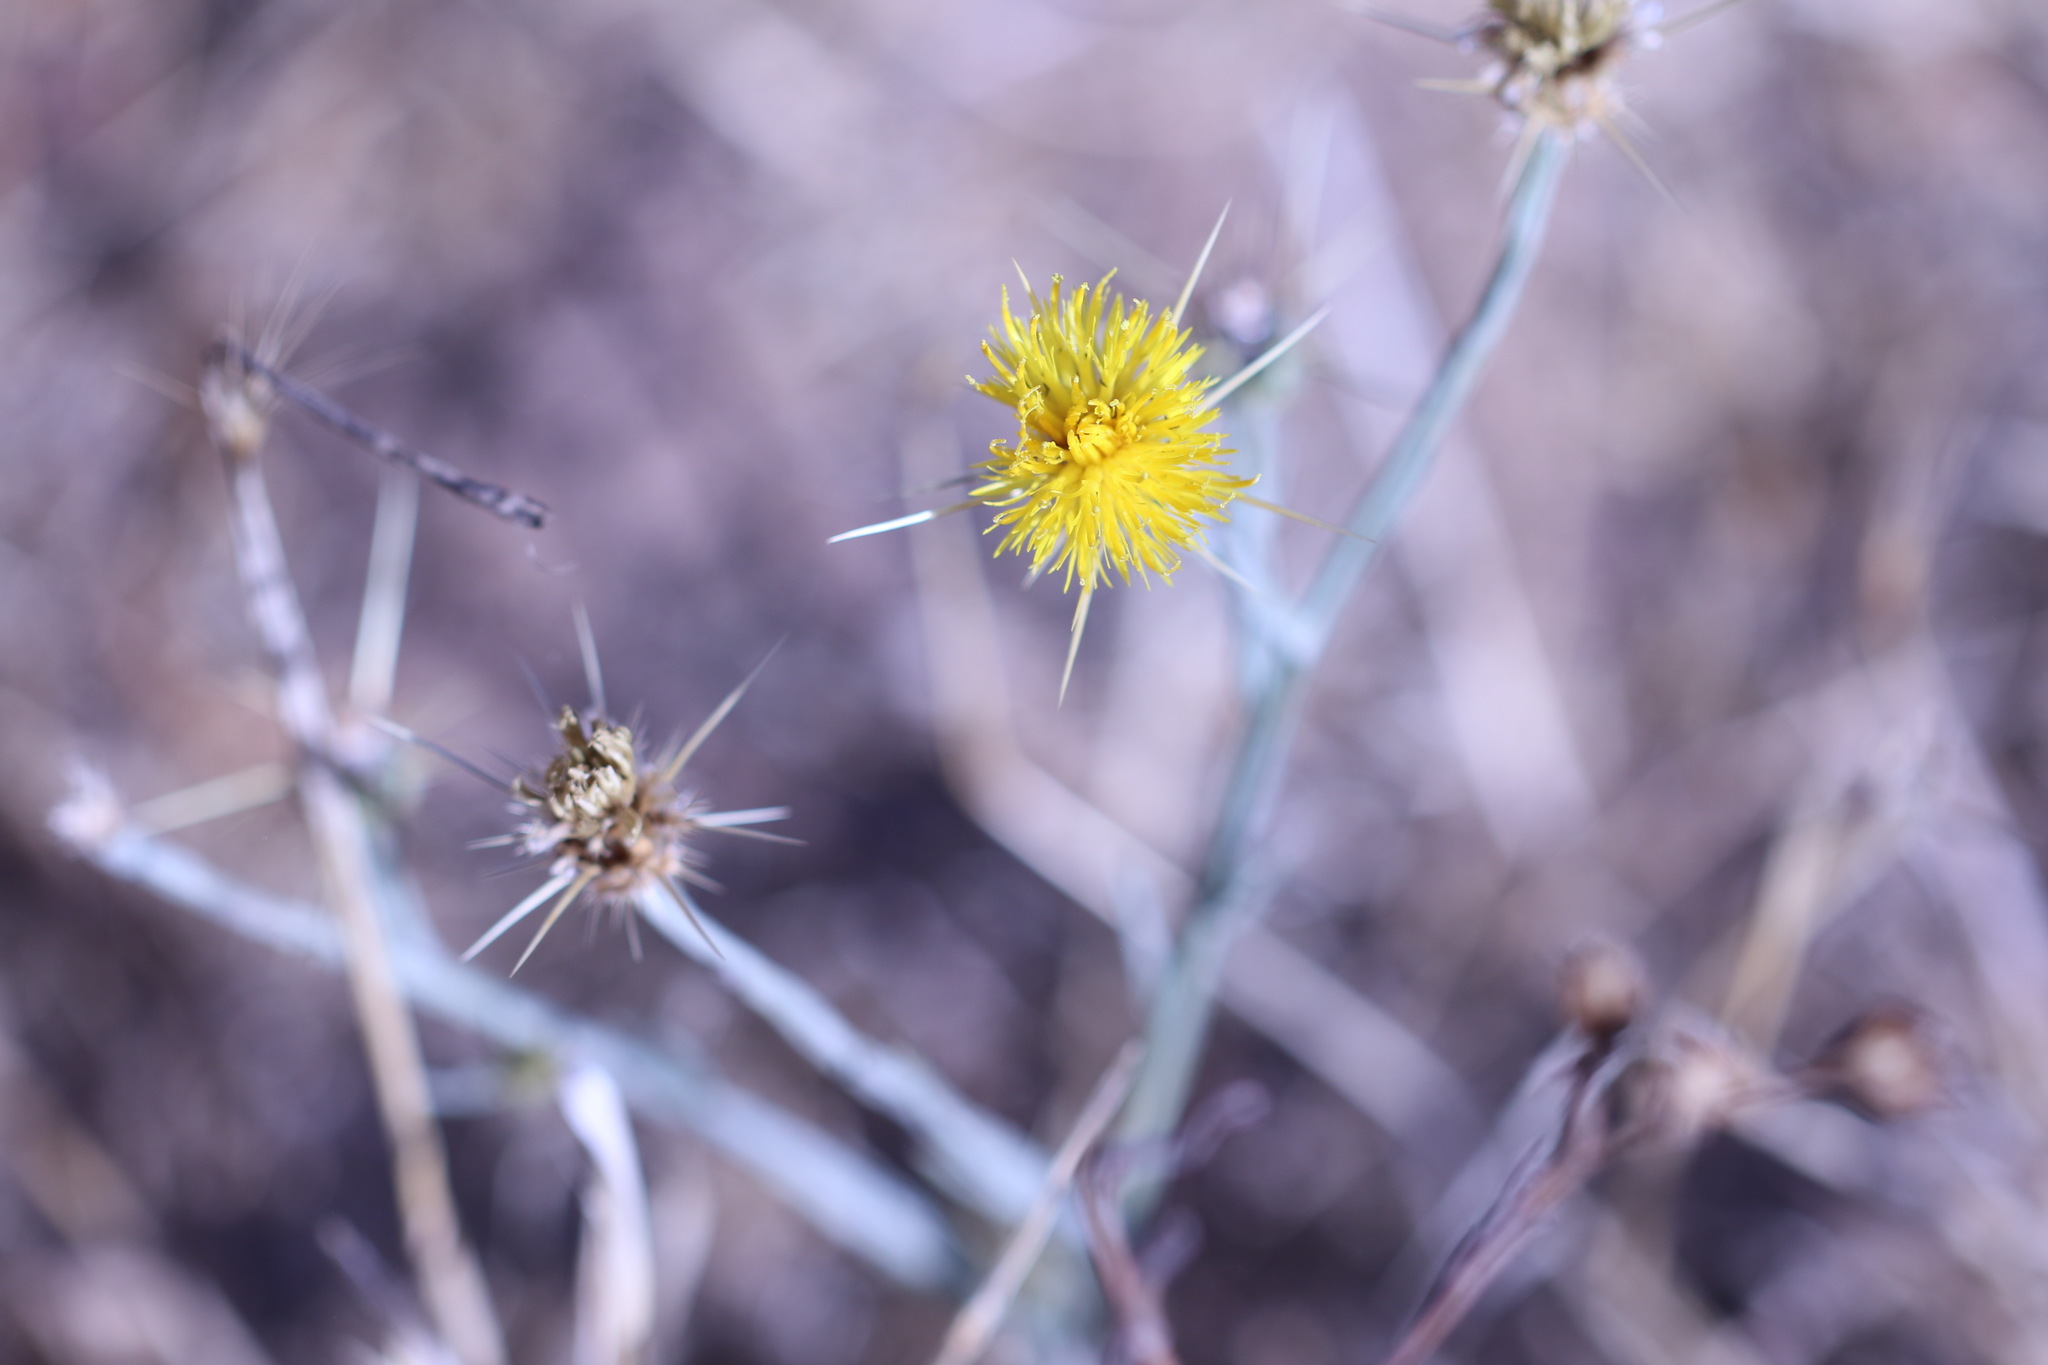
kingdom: Plantae
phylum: Tracheophyta
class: Magnoliopsida
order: Asterales
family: Asteraceae
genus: Centaurea
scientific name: Centaurea solstitialis
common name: Yellow star-thistle
